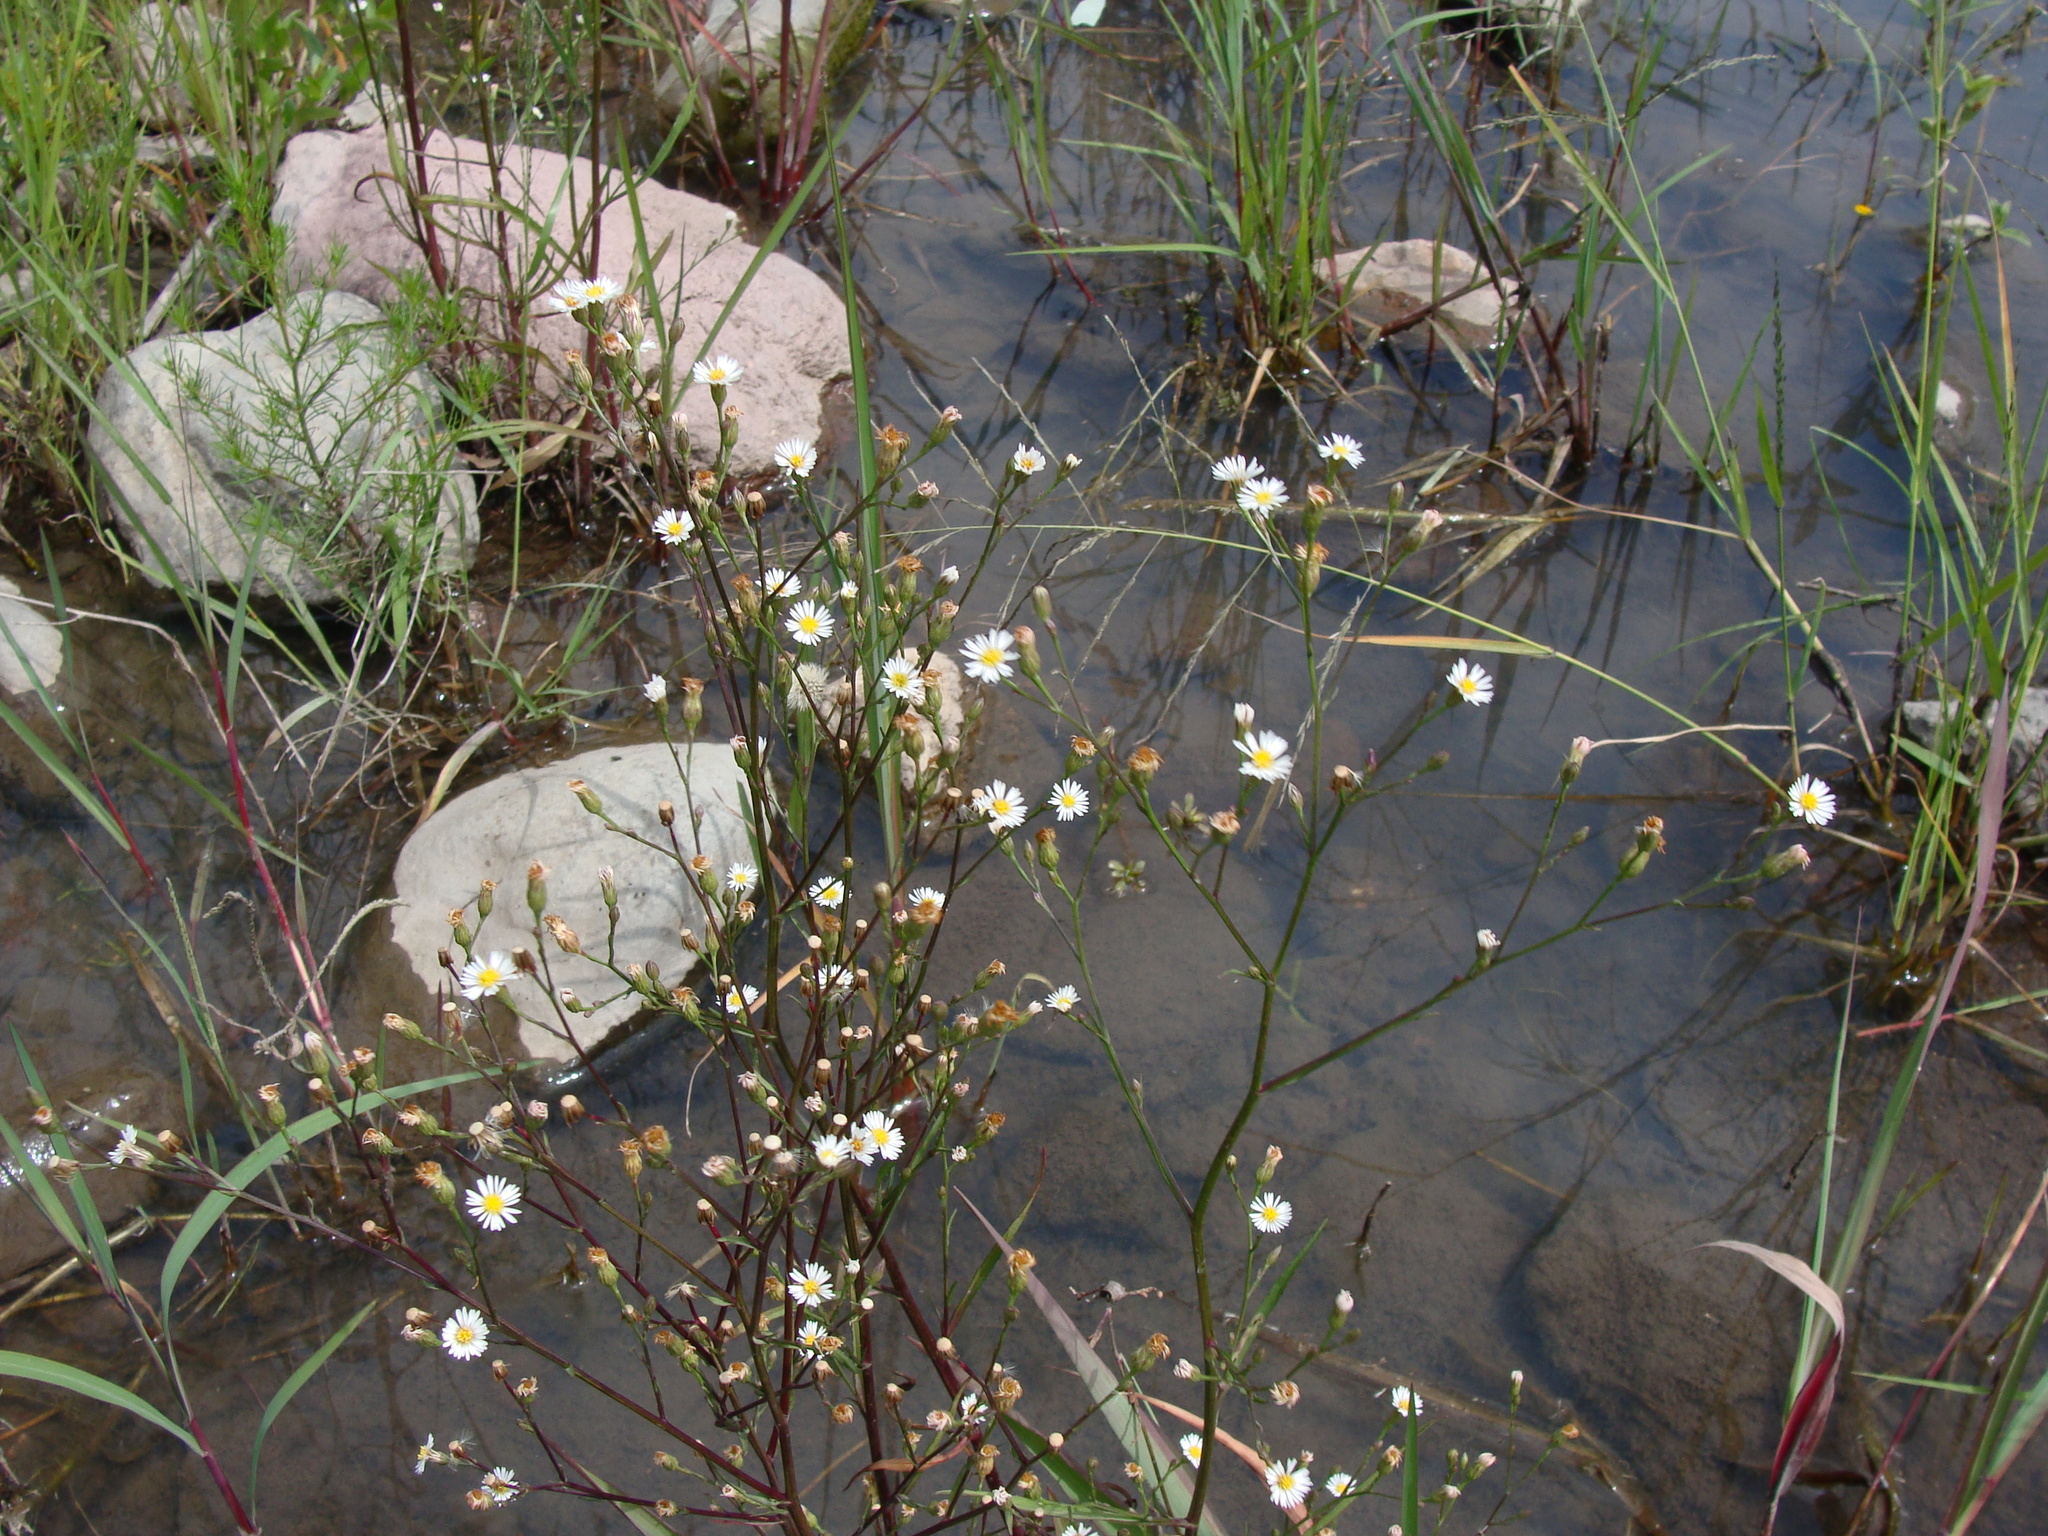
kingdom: Plantae
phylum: Tracheophyta
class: Magnoliopsida
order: Asterales
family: Asteraceae
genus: Symphyotrichum
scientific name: Symphyotrichum expansum
